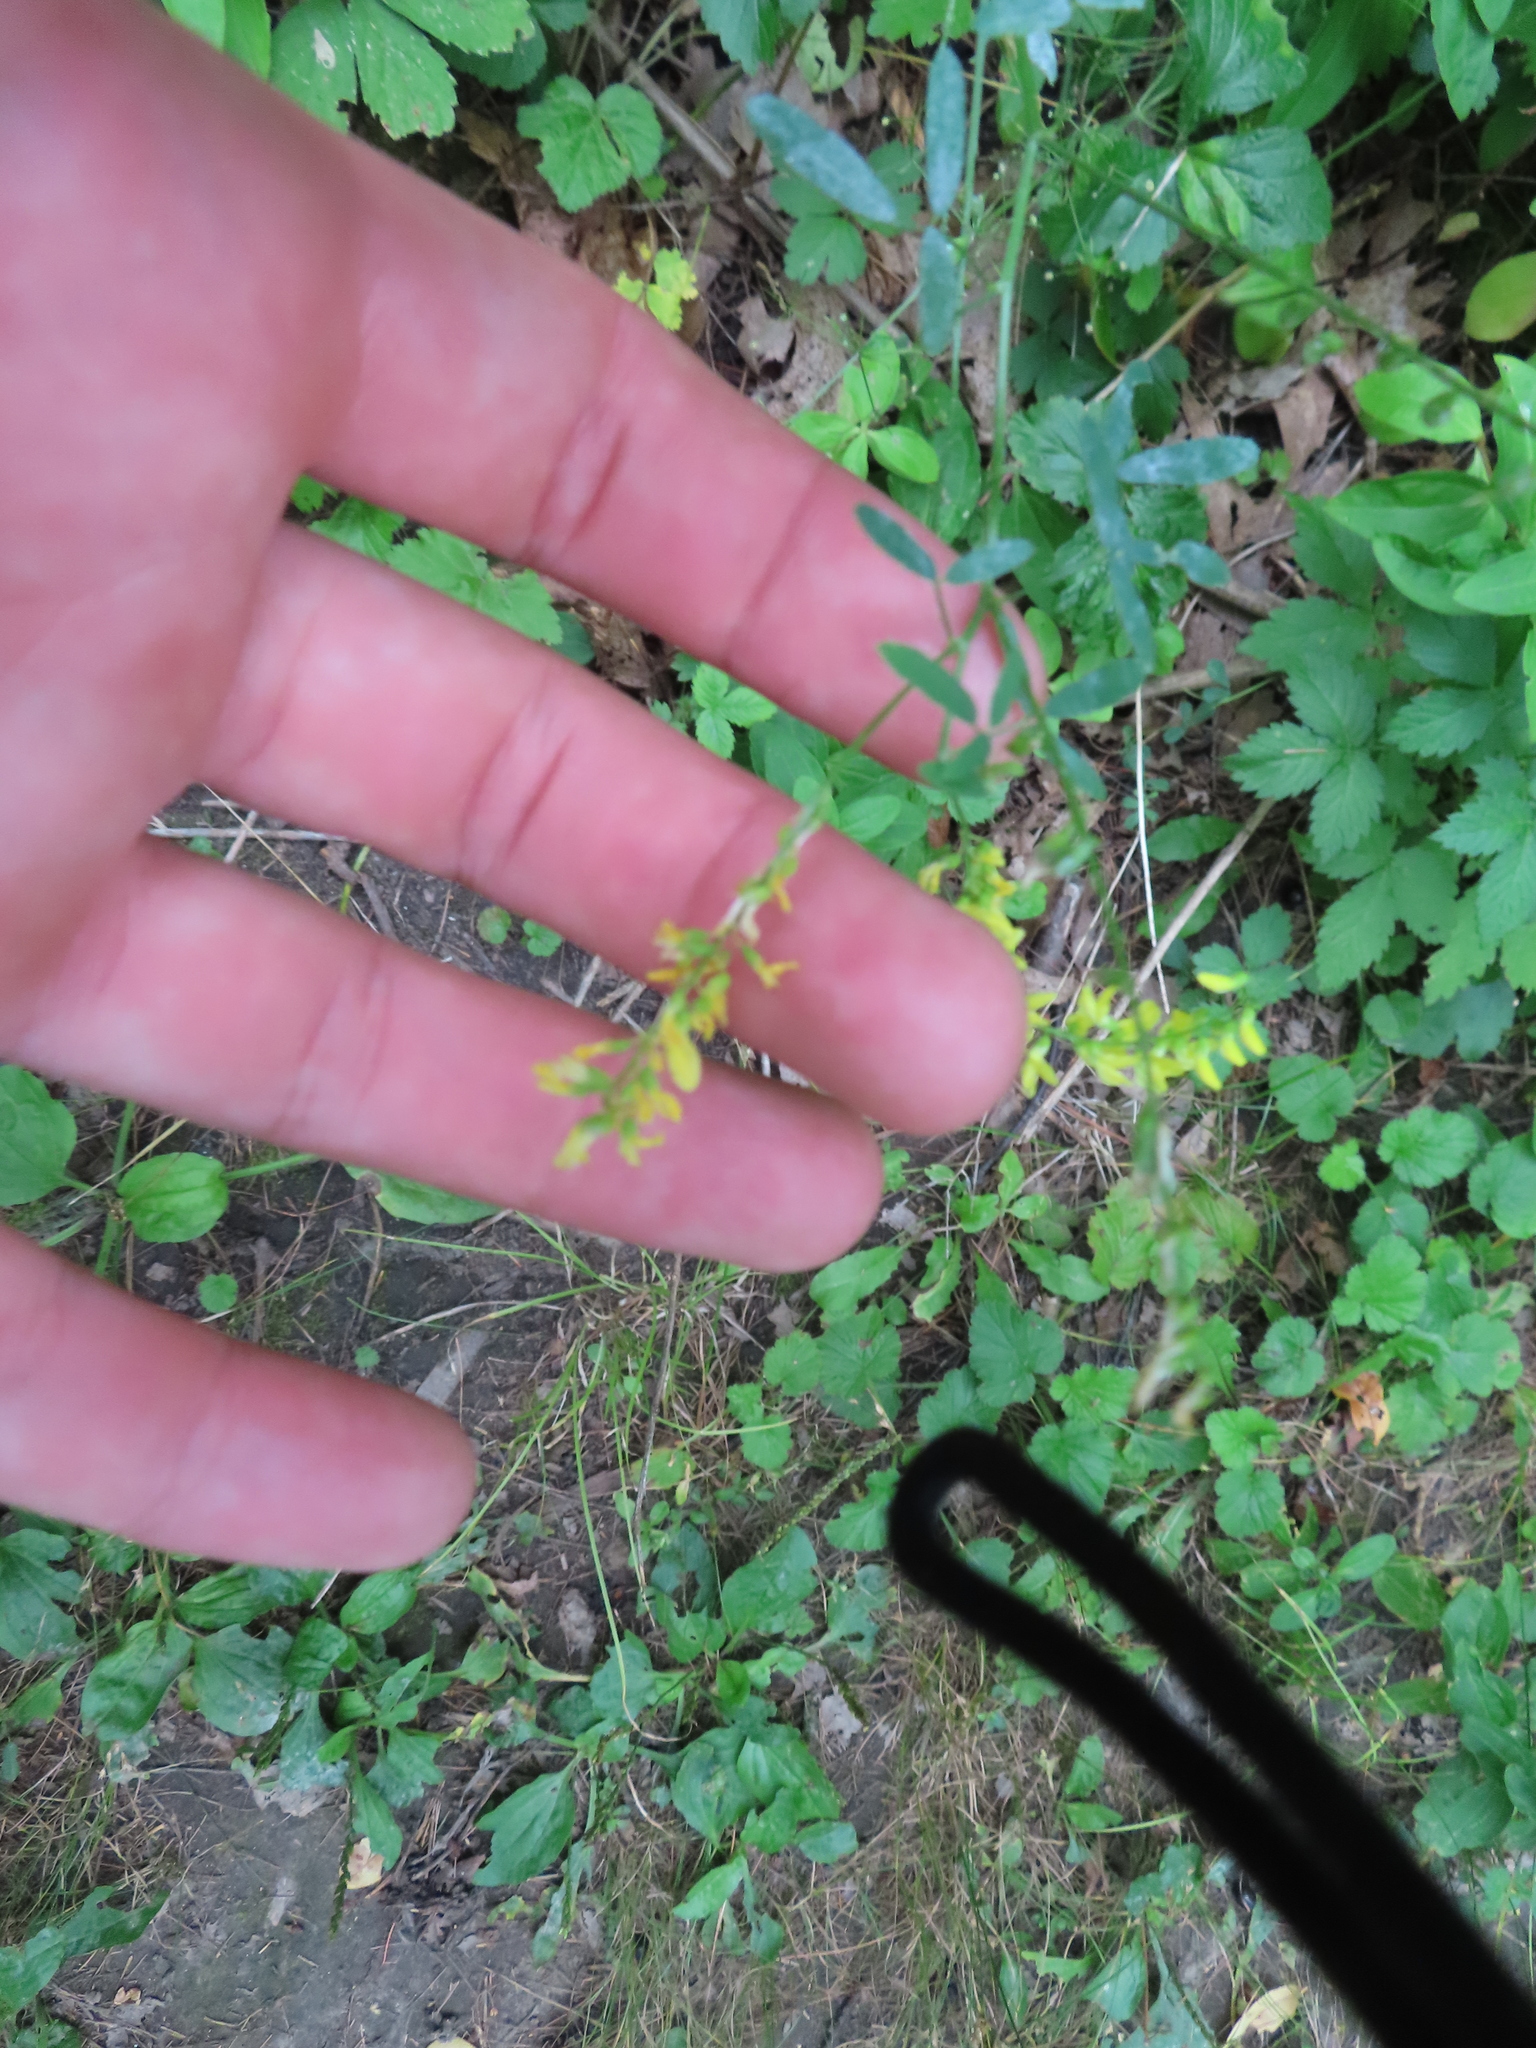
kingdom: Plantae
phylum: Tracheophyta
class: Magnoliopsida
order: Fabales
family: Fabaceae
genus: Melilotus
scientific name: Melilotus officinalis
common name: Sweetclover
